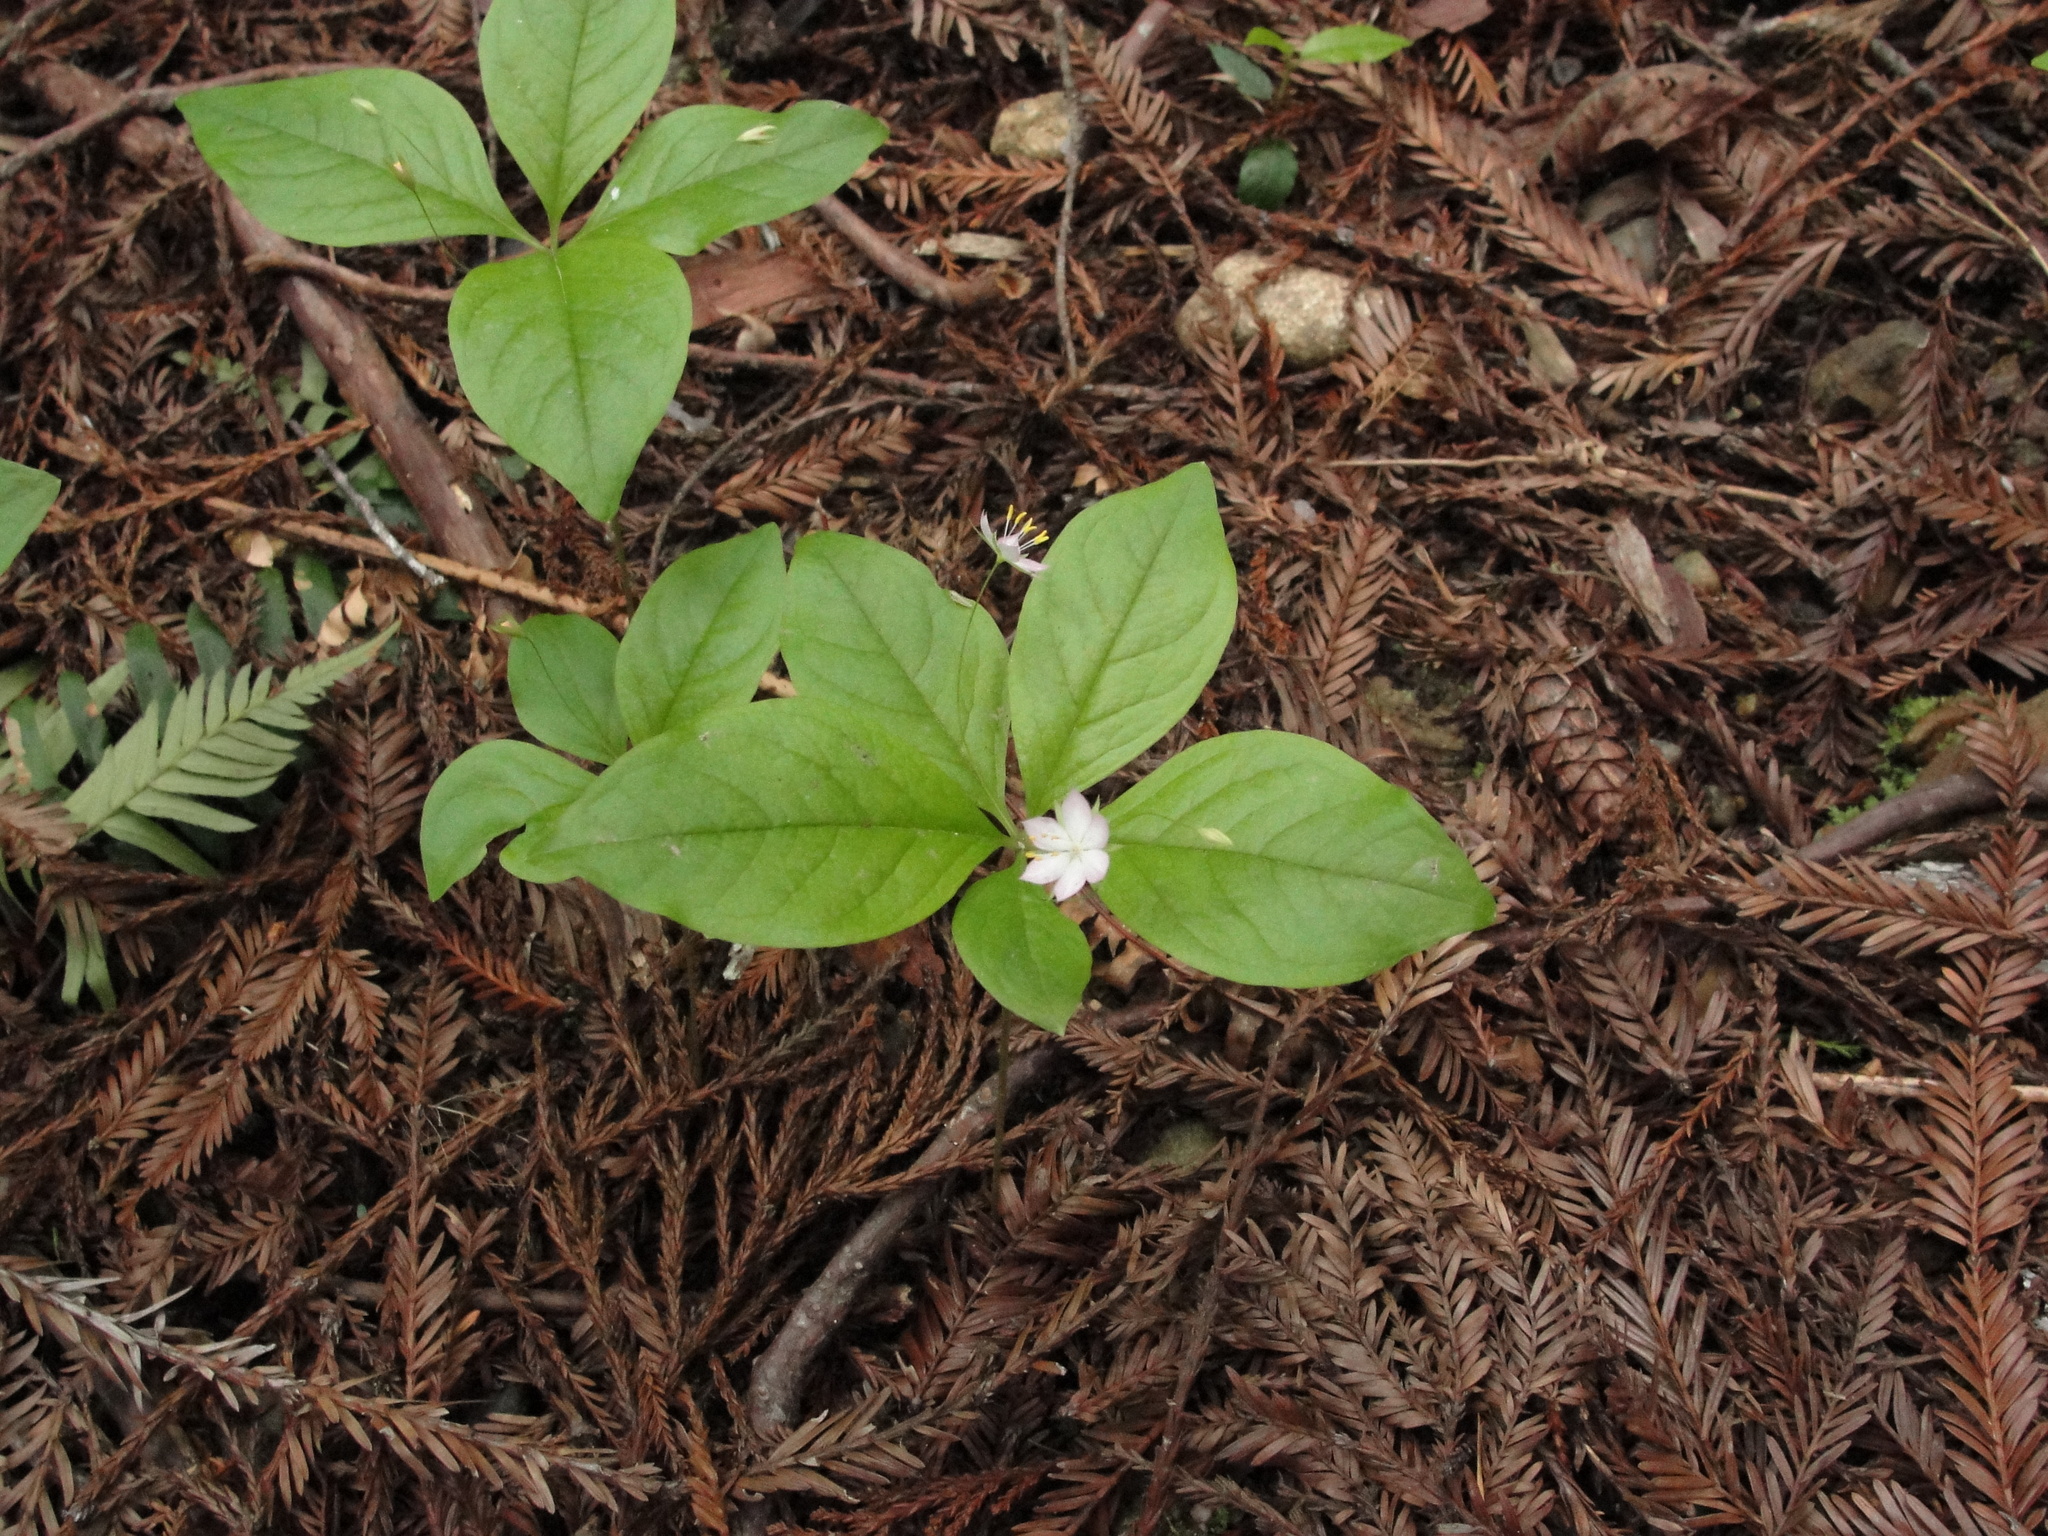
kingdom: Plantae
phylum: Tracheophyta
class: Magnoliopsida
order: Ericales
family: Primulaceae
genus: Lysimachia
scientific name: Lysimachia latifolia
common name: Pacific starflower
